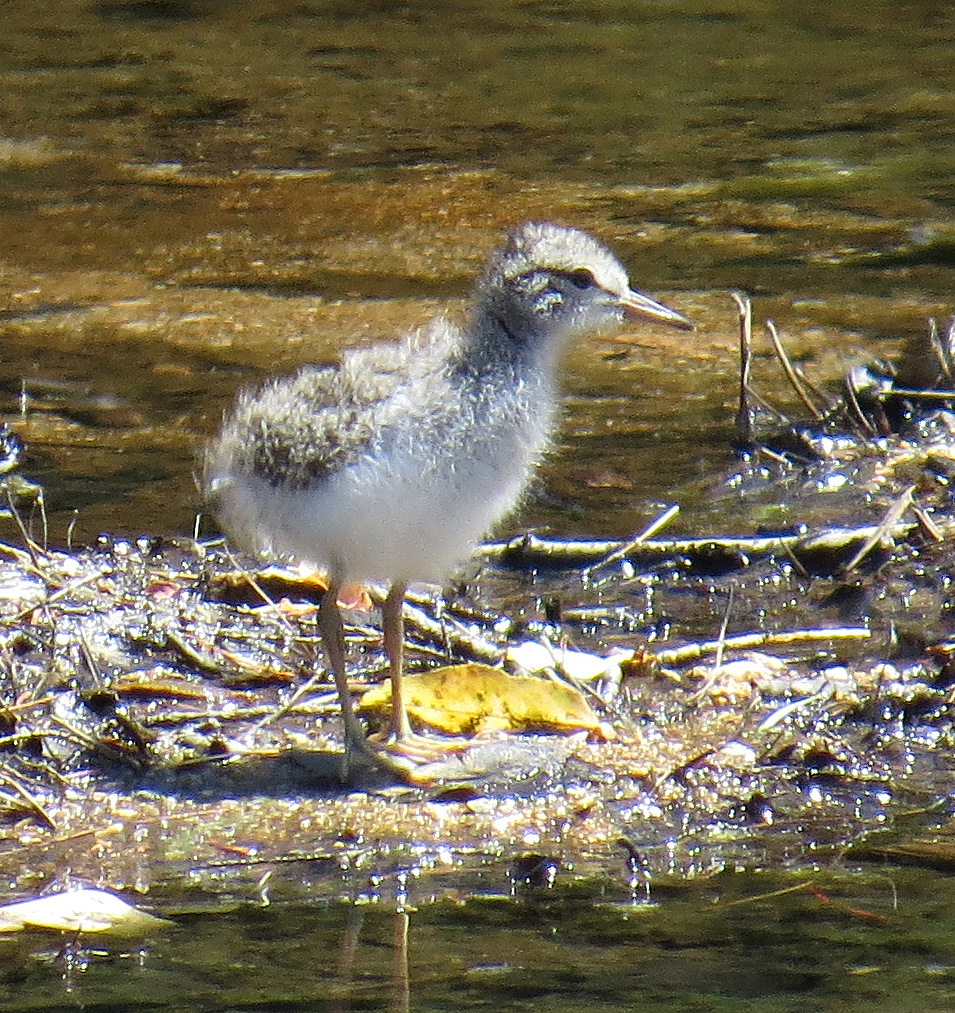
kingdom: Animalia
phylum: Chordata
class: Aves
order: Charadriiformes
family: Scolopacidae
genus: Actitis
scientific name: Actitis macularius
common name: Spotted sandpiper
